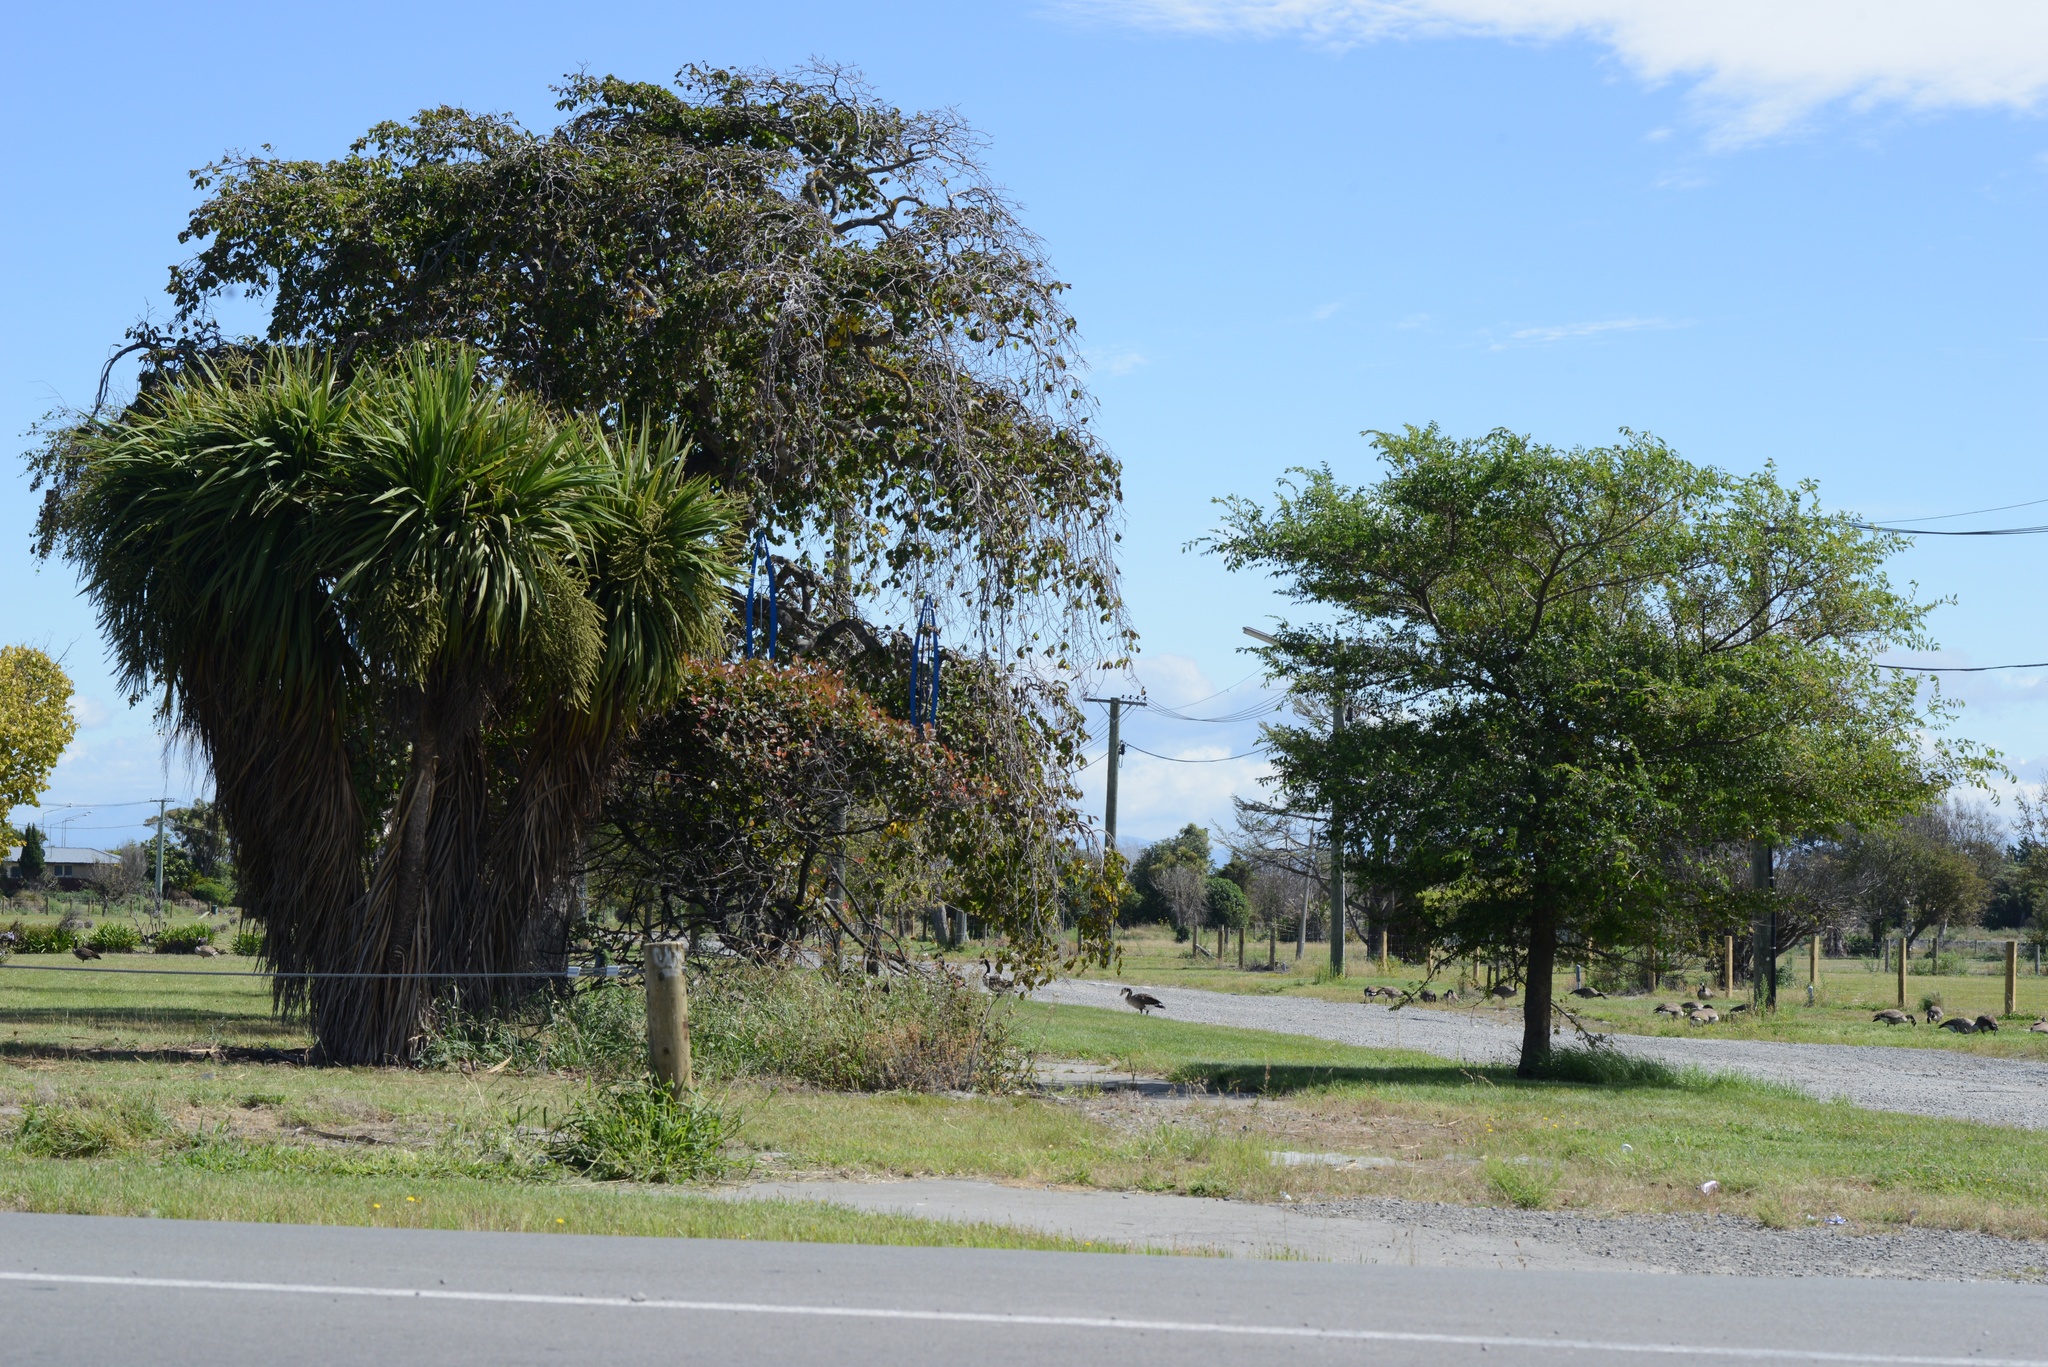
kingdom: Animalia
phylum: Chordata
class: Aves
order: Anseriformes
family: Anatidae
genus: Branta
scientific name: Branta canadensis
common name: Canada goose
